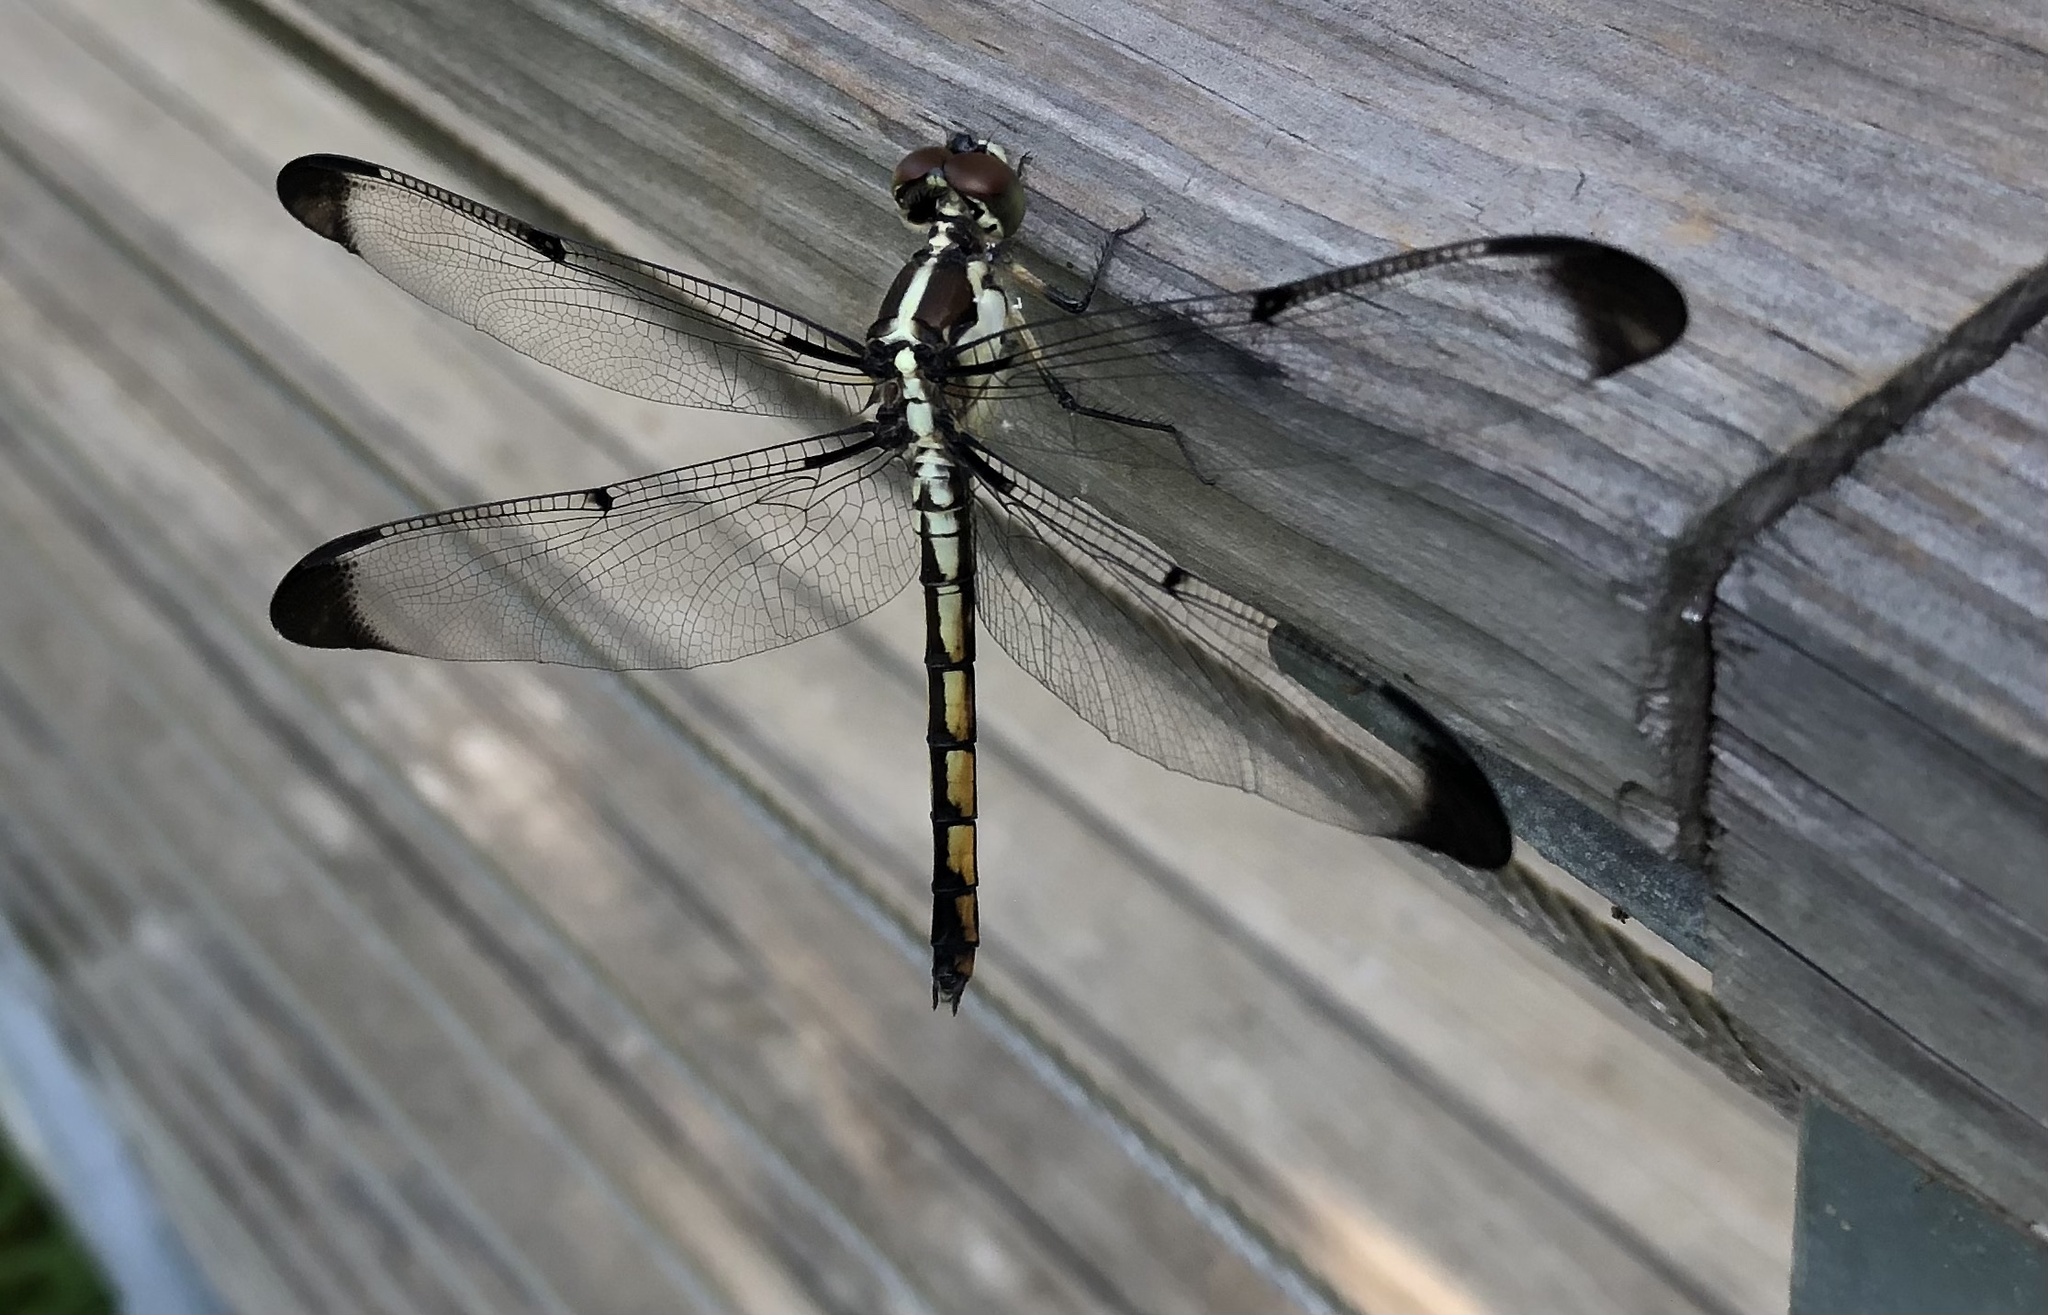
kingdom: Animalia
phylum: Arthropoda
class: Insecta
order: Odonata
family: Libellulidae
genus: Libellula
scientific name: Libellula vibrans
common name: Great blue skimmer
